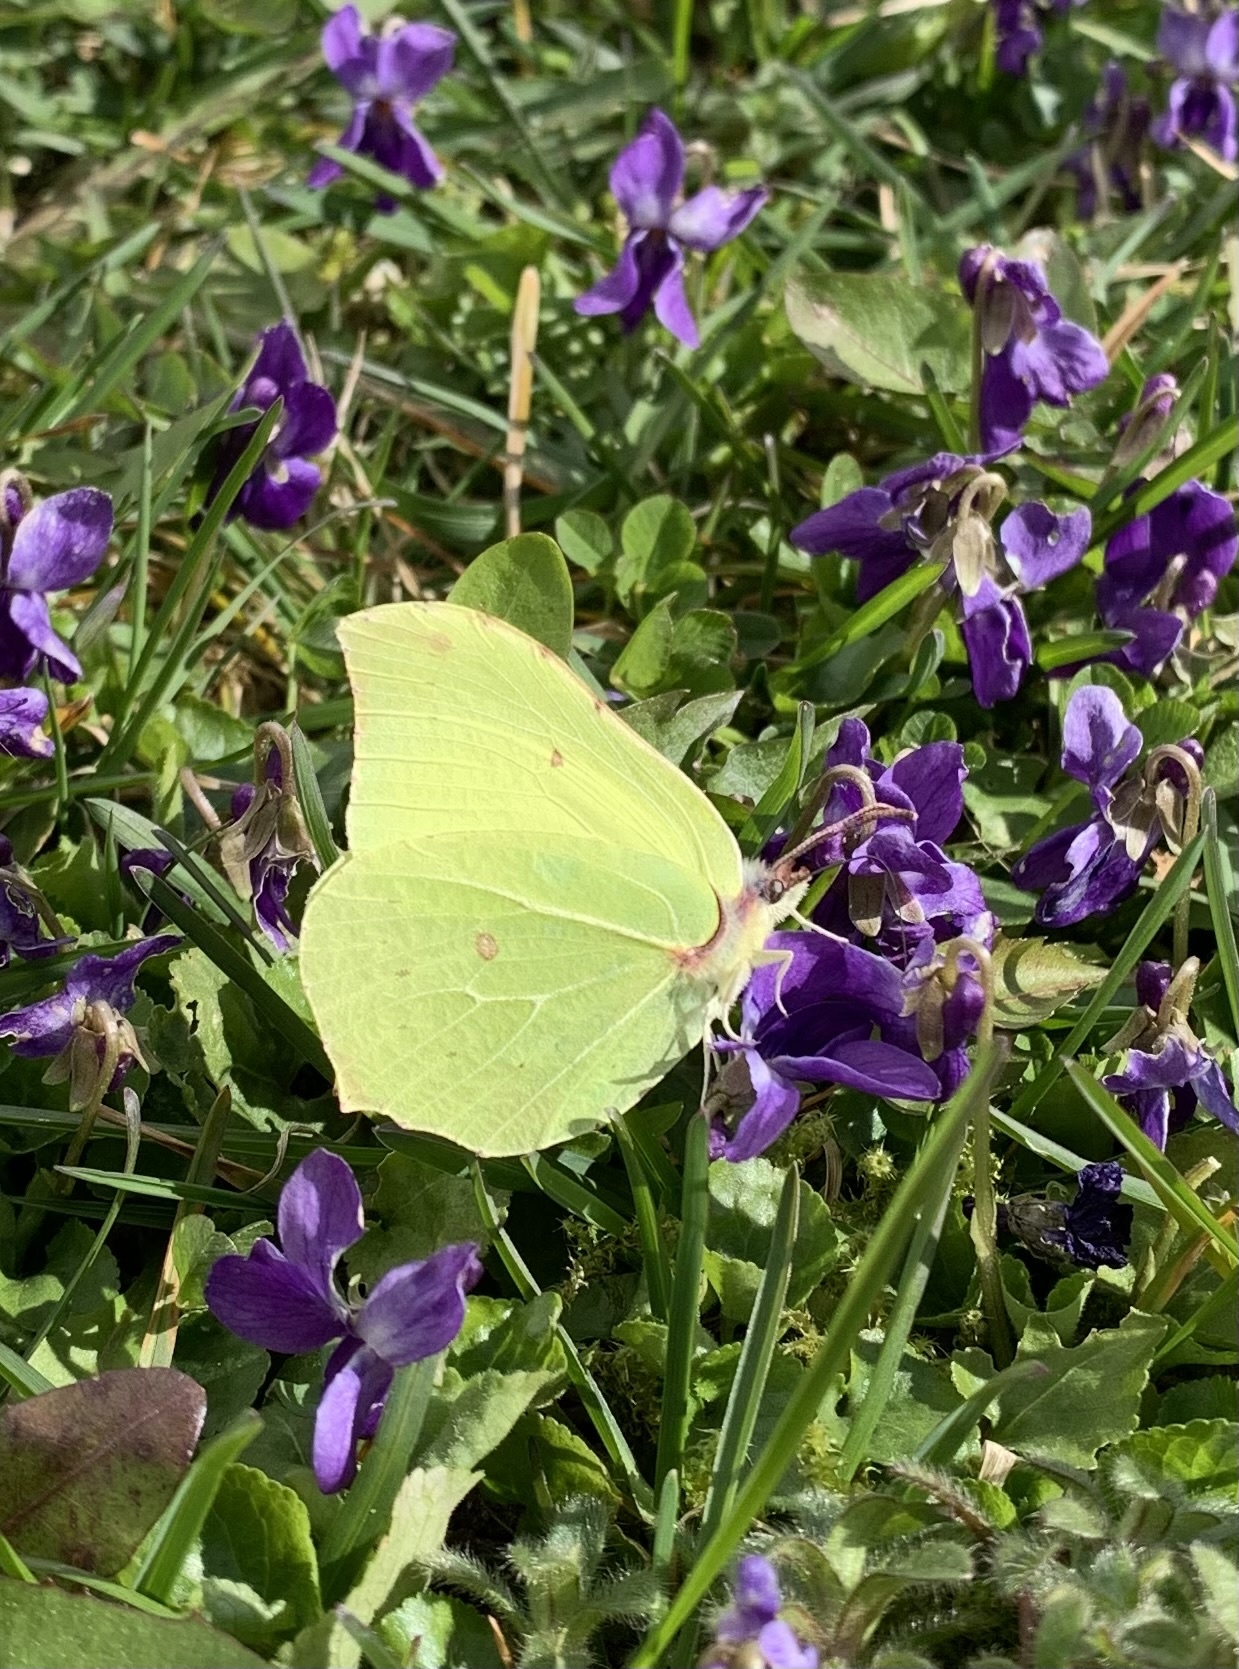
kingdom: Animalia
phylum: Arthropoda
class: Insecta
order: Lepidoptera
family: Pieridae
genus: Gonepteryx
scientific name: Gonepteryx rhamni
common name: Brimstone
